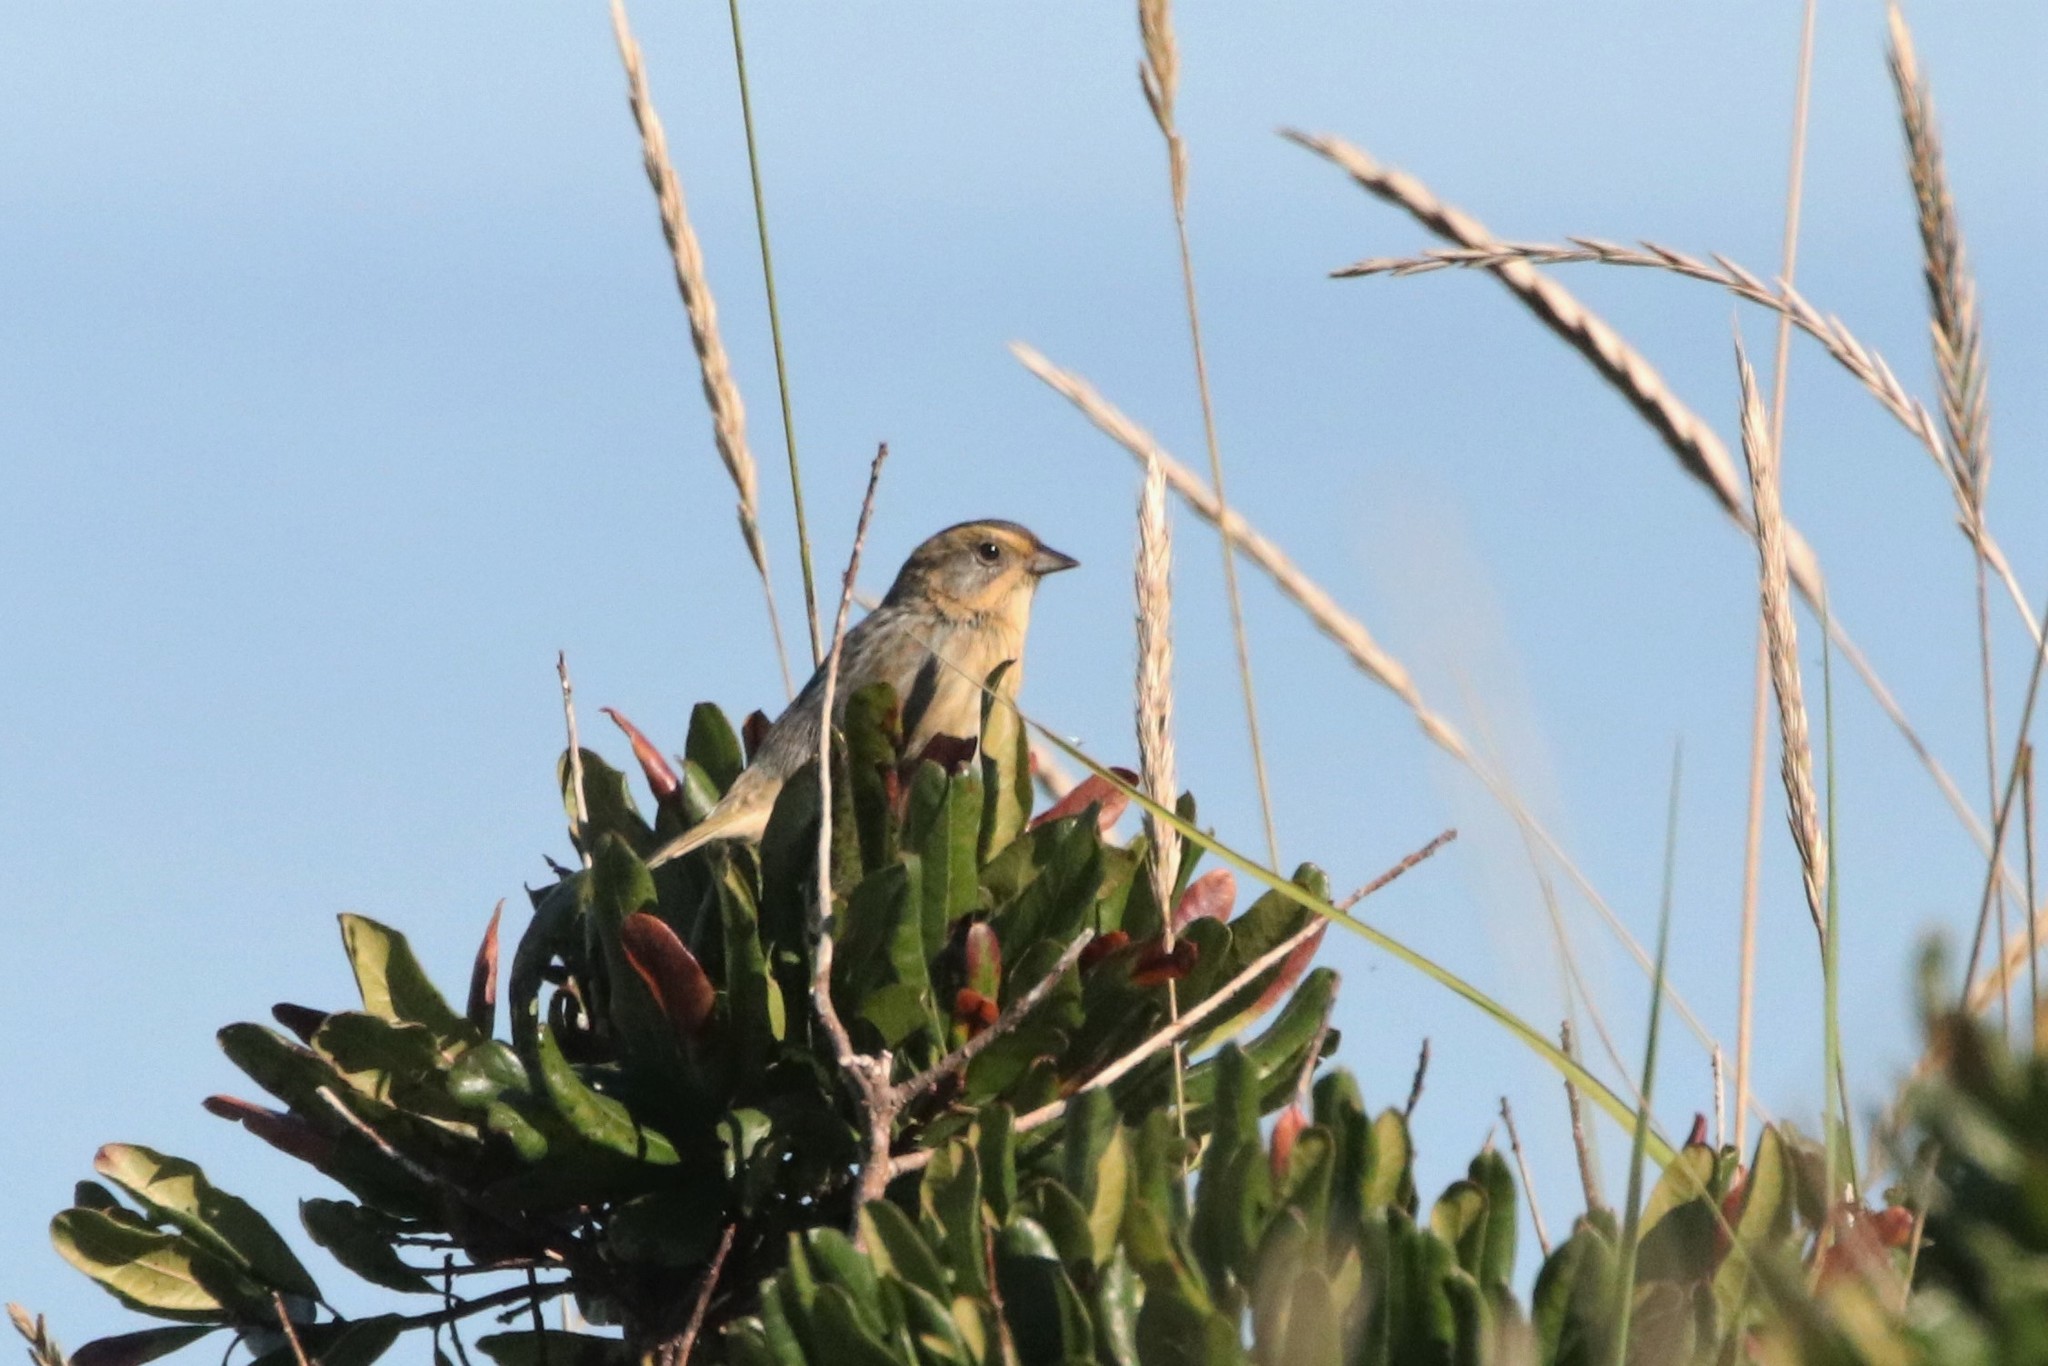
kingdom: Animalia
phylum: Chordata
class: Aves
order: Passeriformes
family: Passerellidae
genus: Ammospiza
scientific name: Ammospiza nelsoni
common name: Nelson's sparrow
